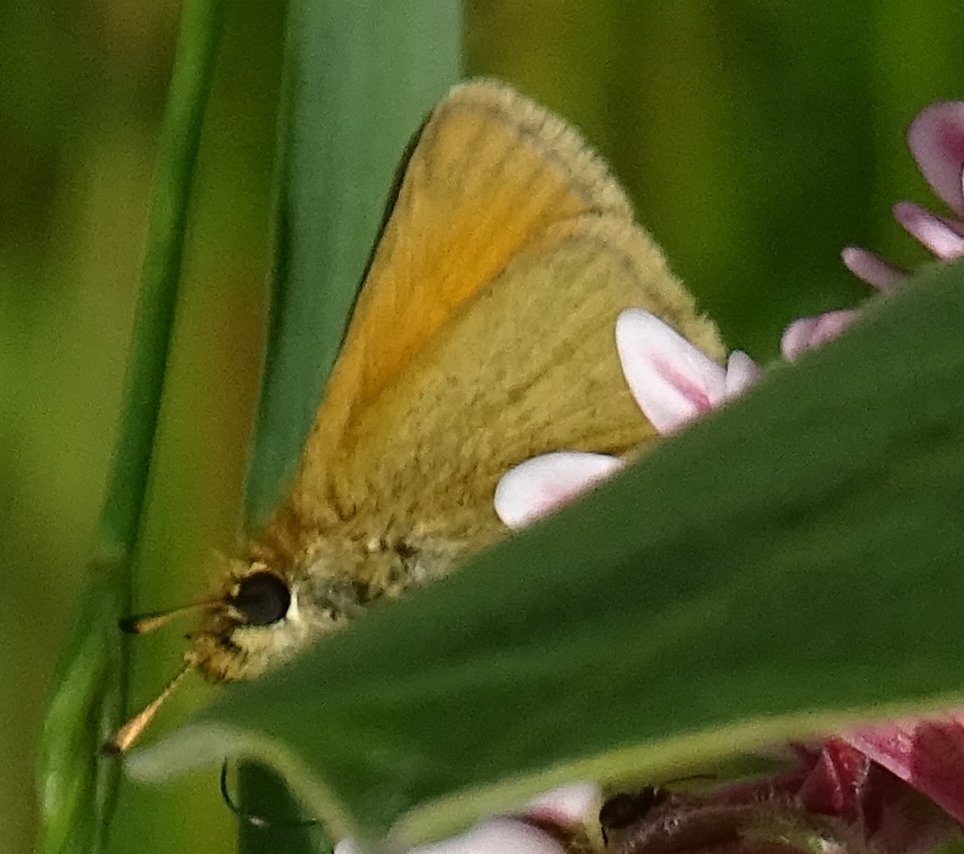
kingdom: Animalia
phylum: Arthropoda
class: Insecta
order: Lepidoptera
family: Hesperiidae
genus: Thymelicus
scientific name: Thymelicus lineola
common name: Essex skipper
